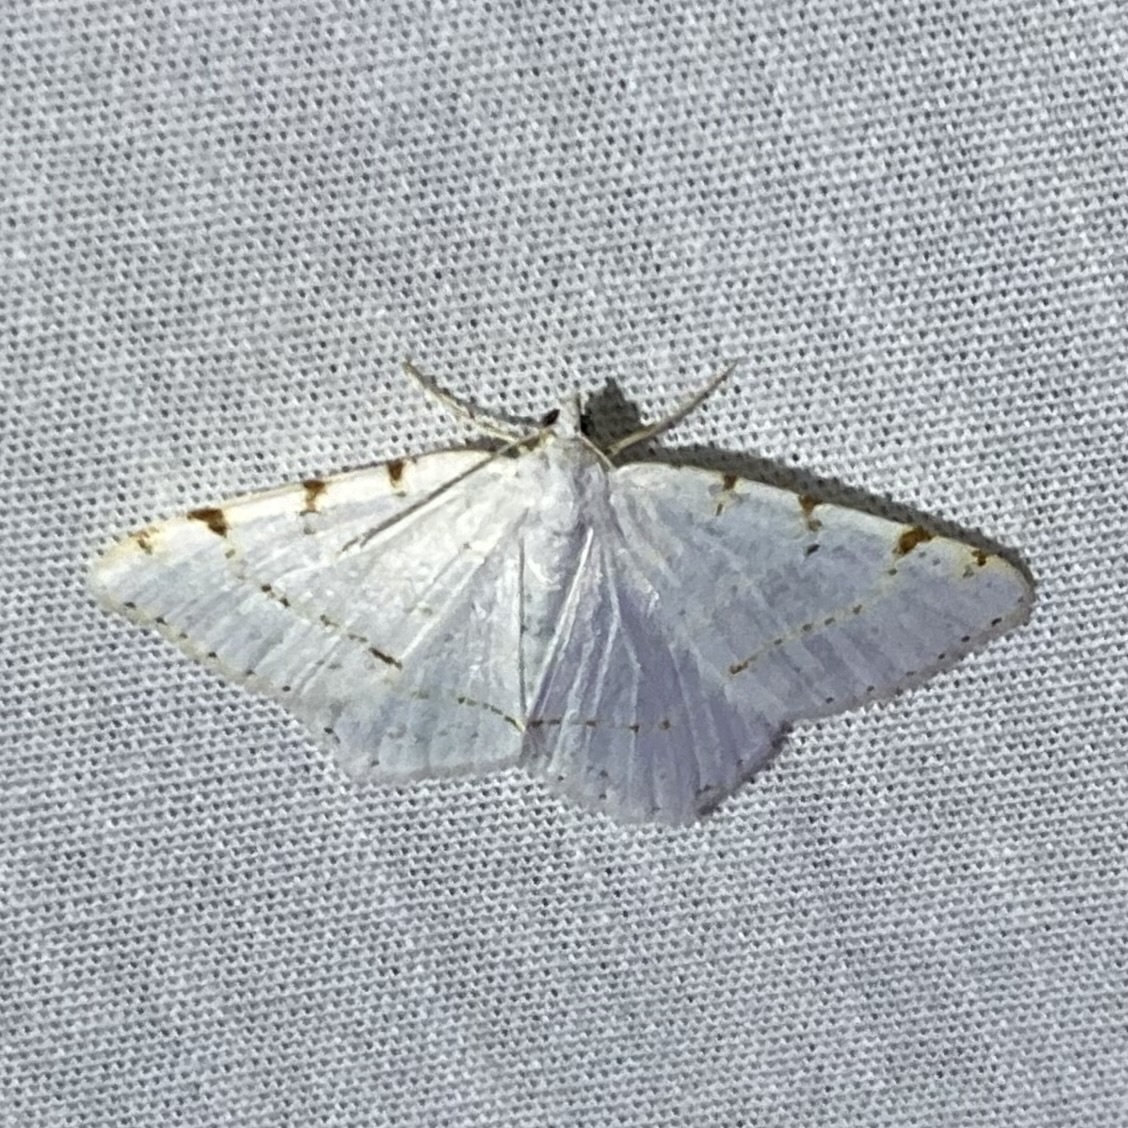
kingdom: Animalia
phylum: Arthropoda
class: Insecta
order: Lepidoptera
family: Geometridae
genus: Macaria
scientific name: Macaria pustularia
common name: Lesser maple spanworm moth
